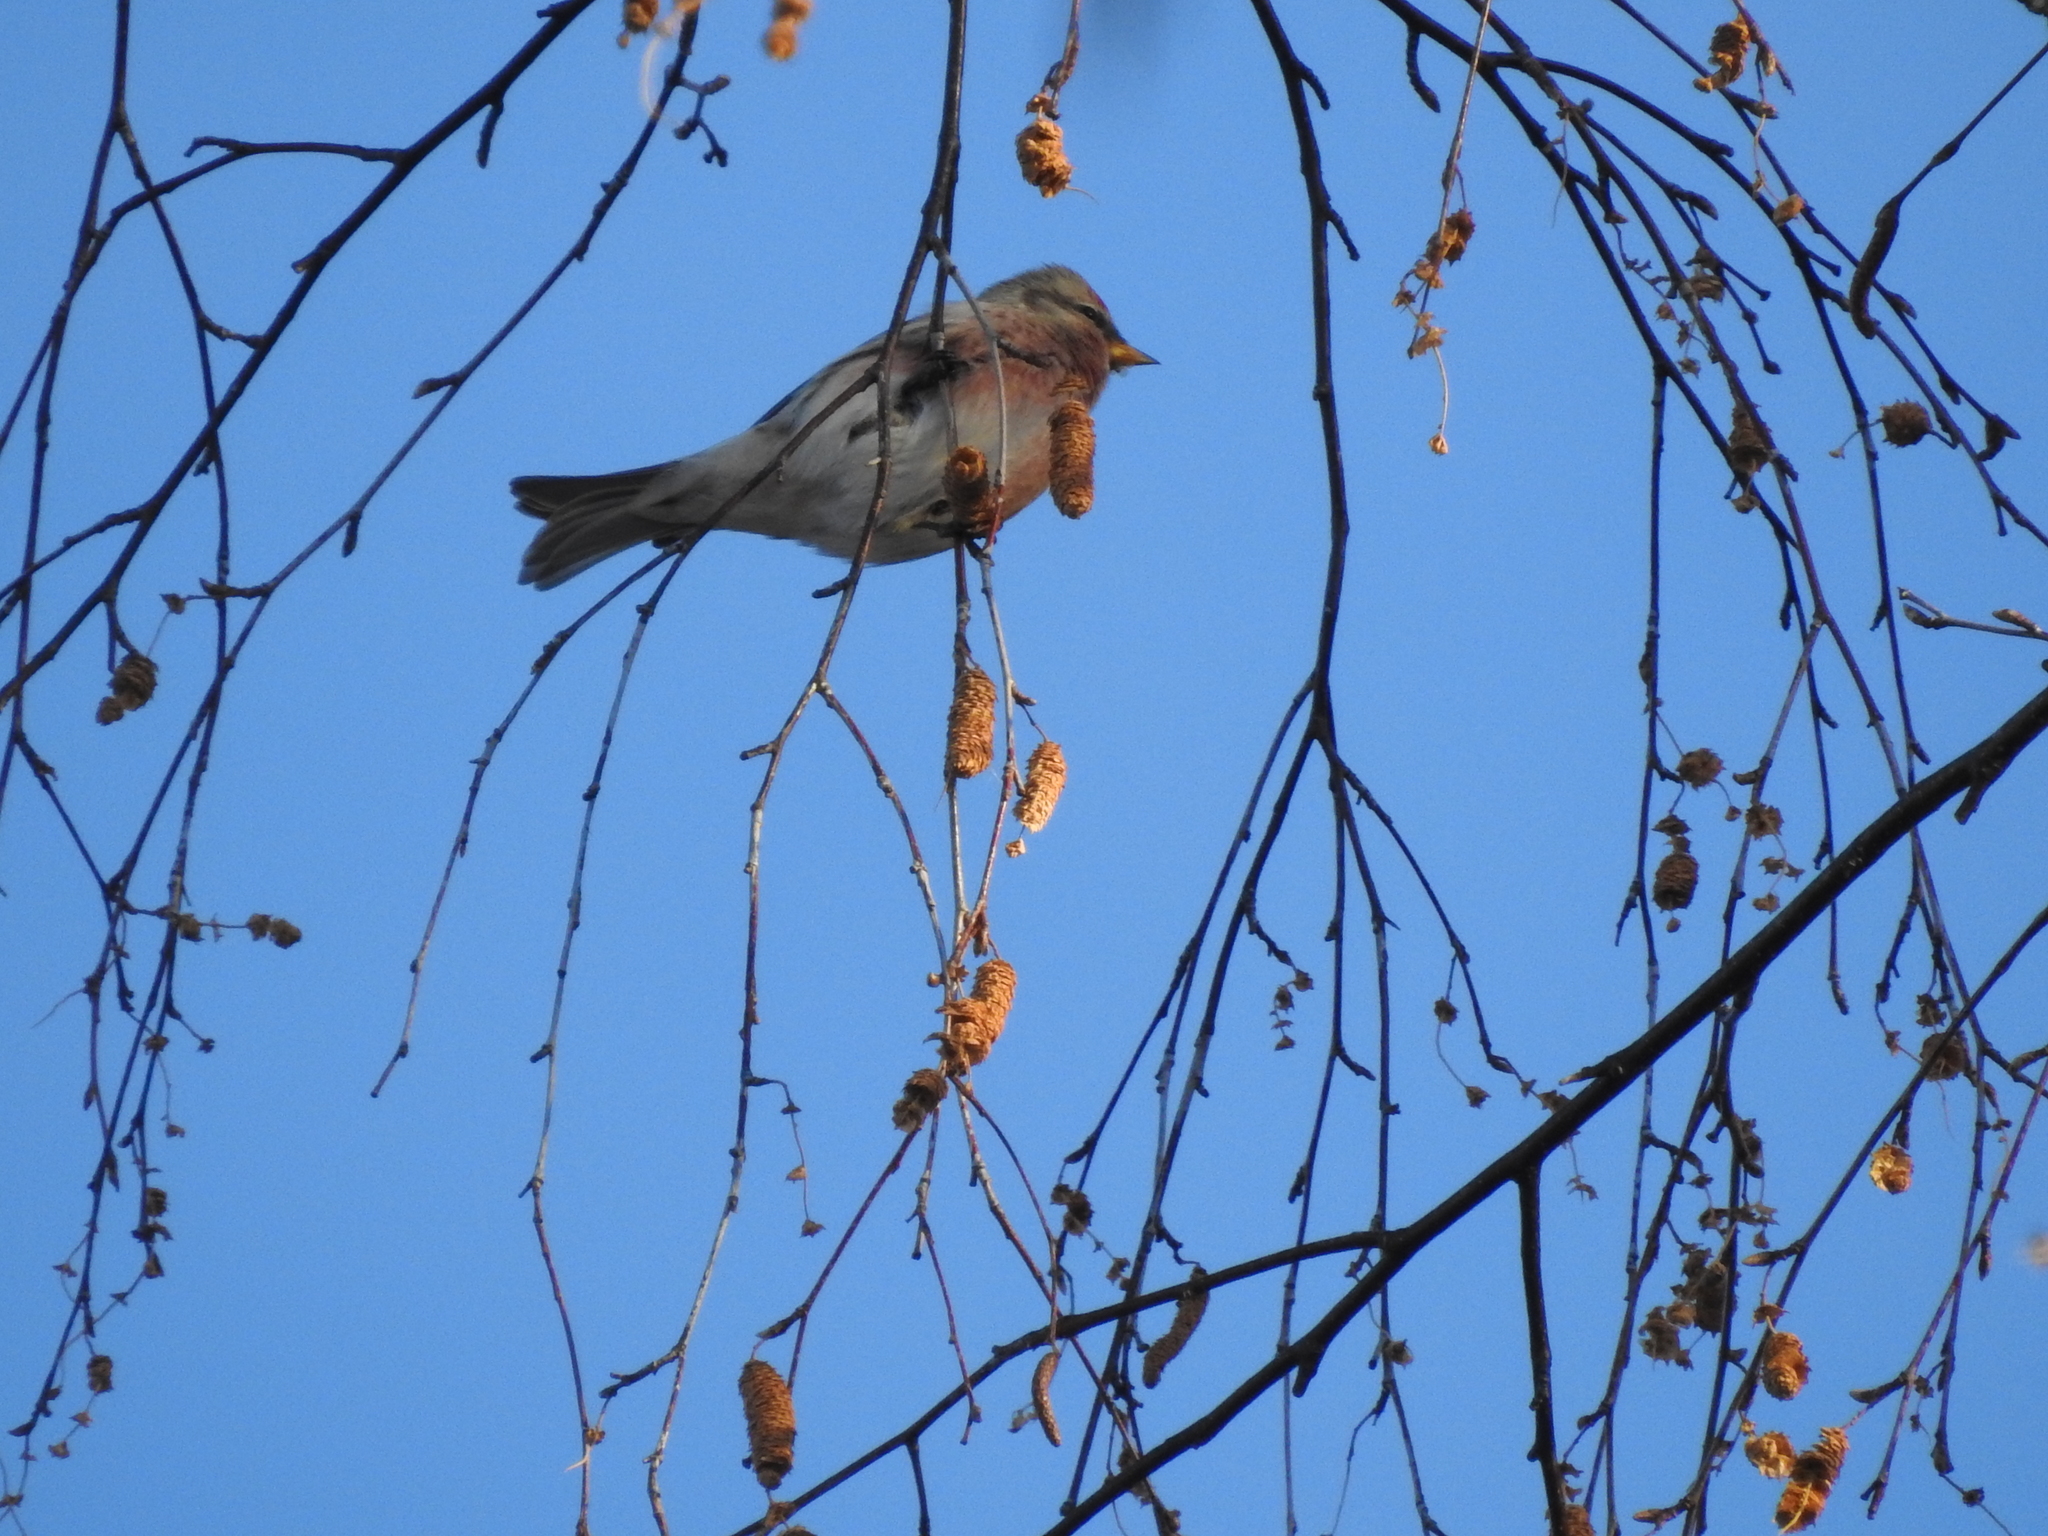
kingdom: Animalia
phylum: Chordata
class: Aves
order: Passeriformes
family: Fringillidae
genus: Acanthis
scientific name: Acanthis flammea
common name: Common redpoll
